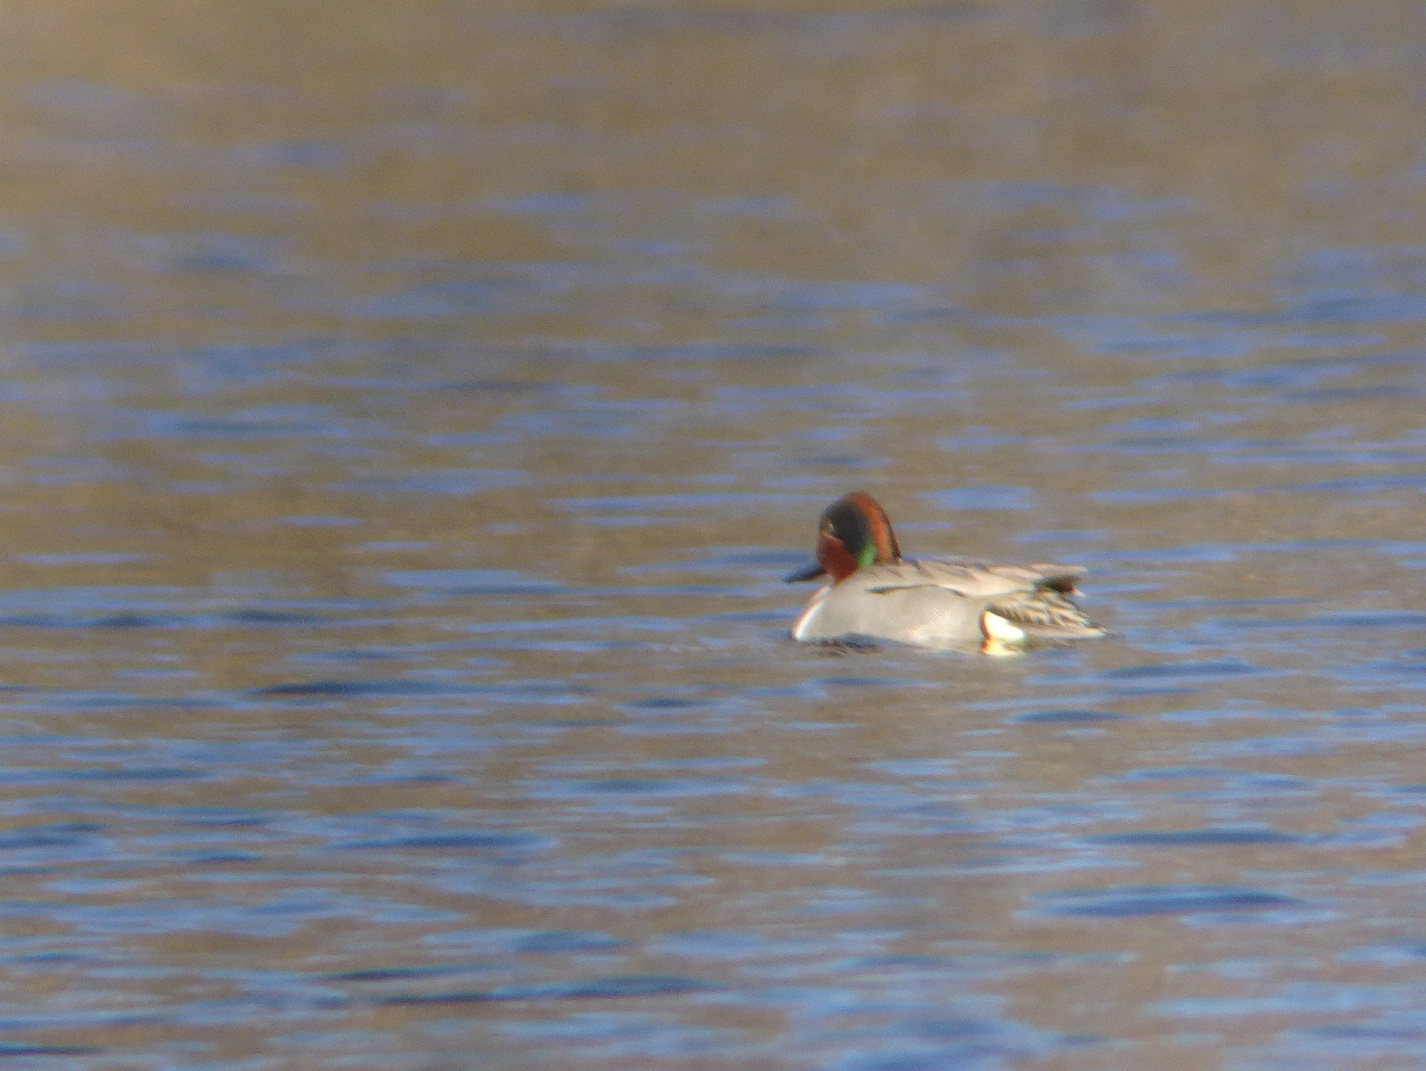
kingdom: Animalia
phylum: Chordata
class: Aves
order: Anseriformes
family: Anatidae
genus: Anas
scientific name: Anas crecca
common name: Eurasian teal
